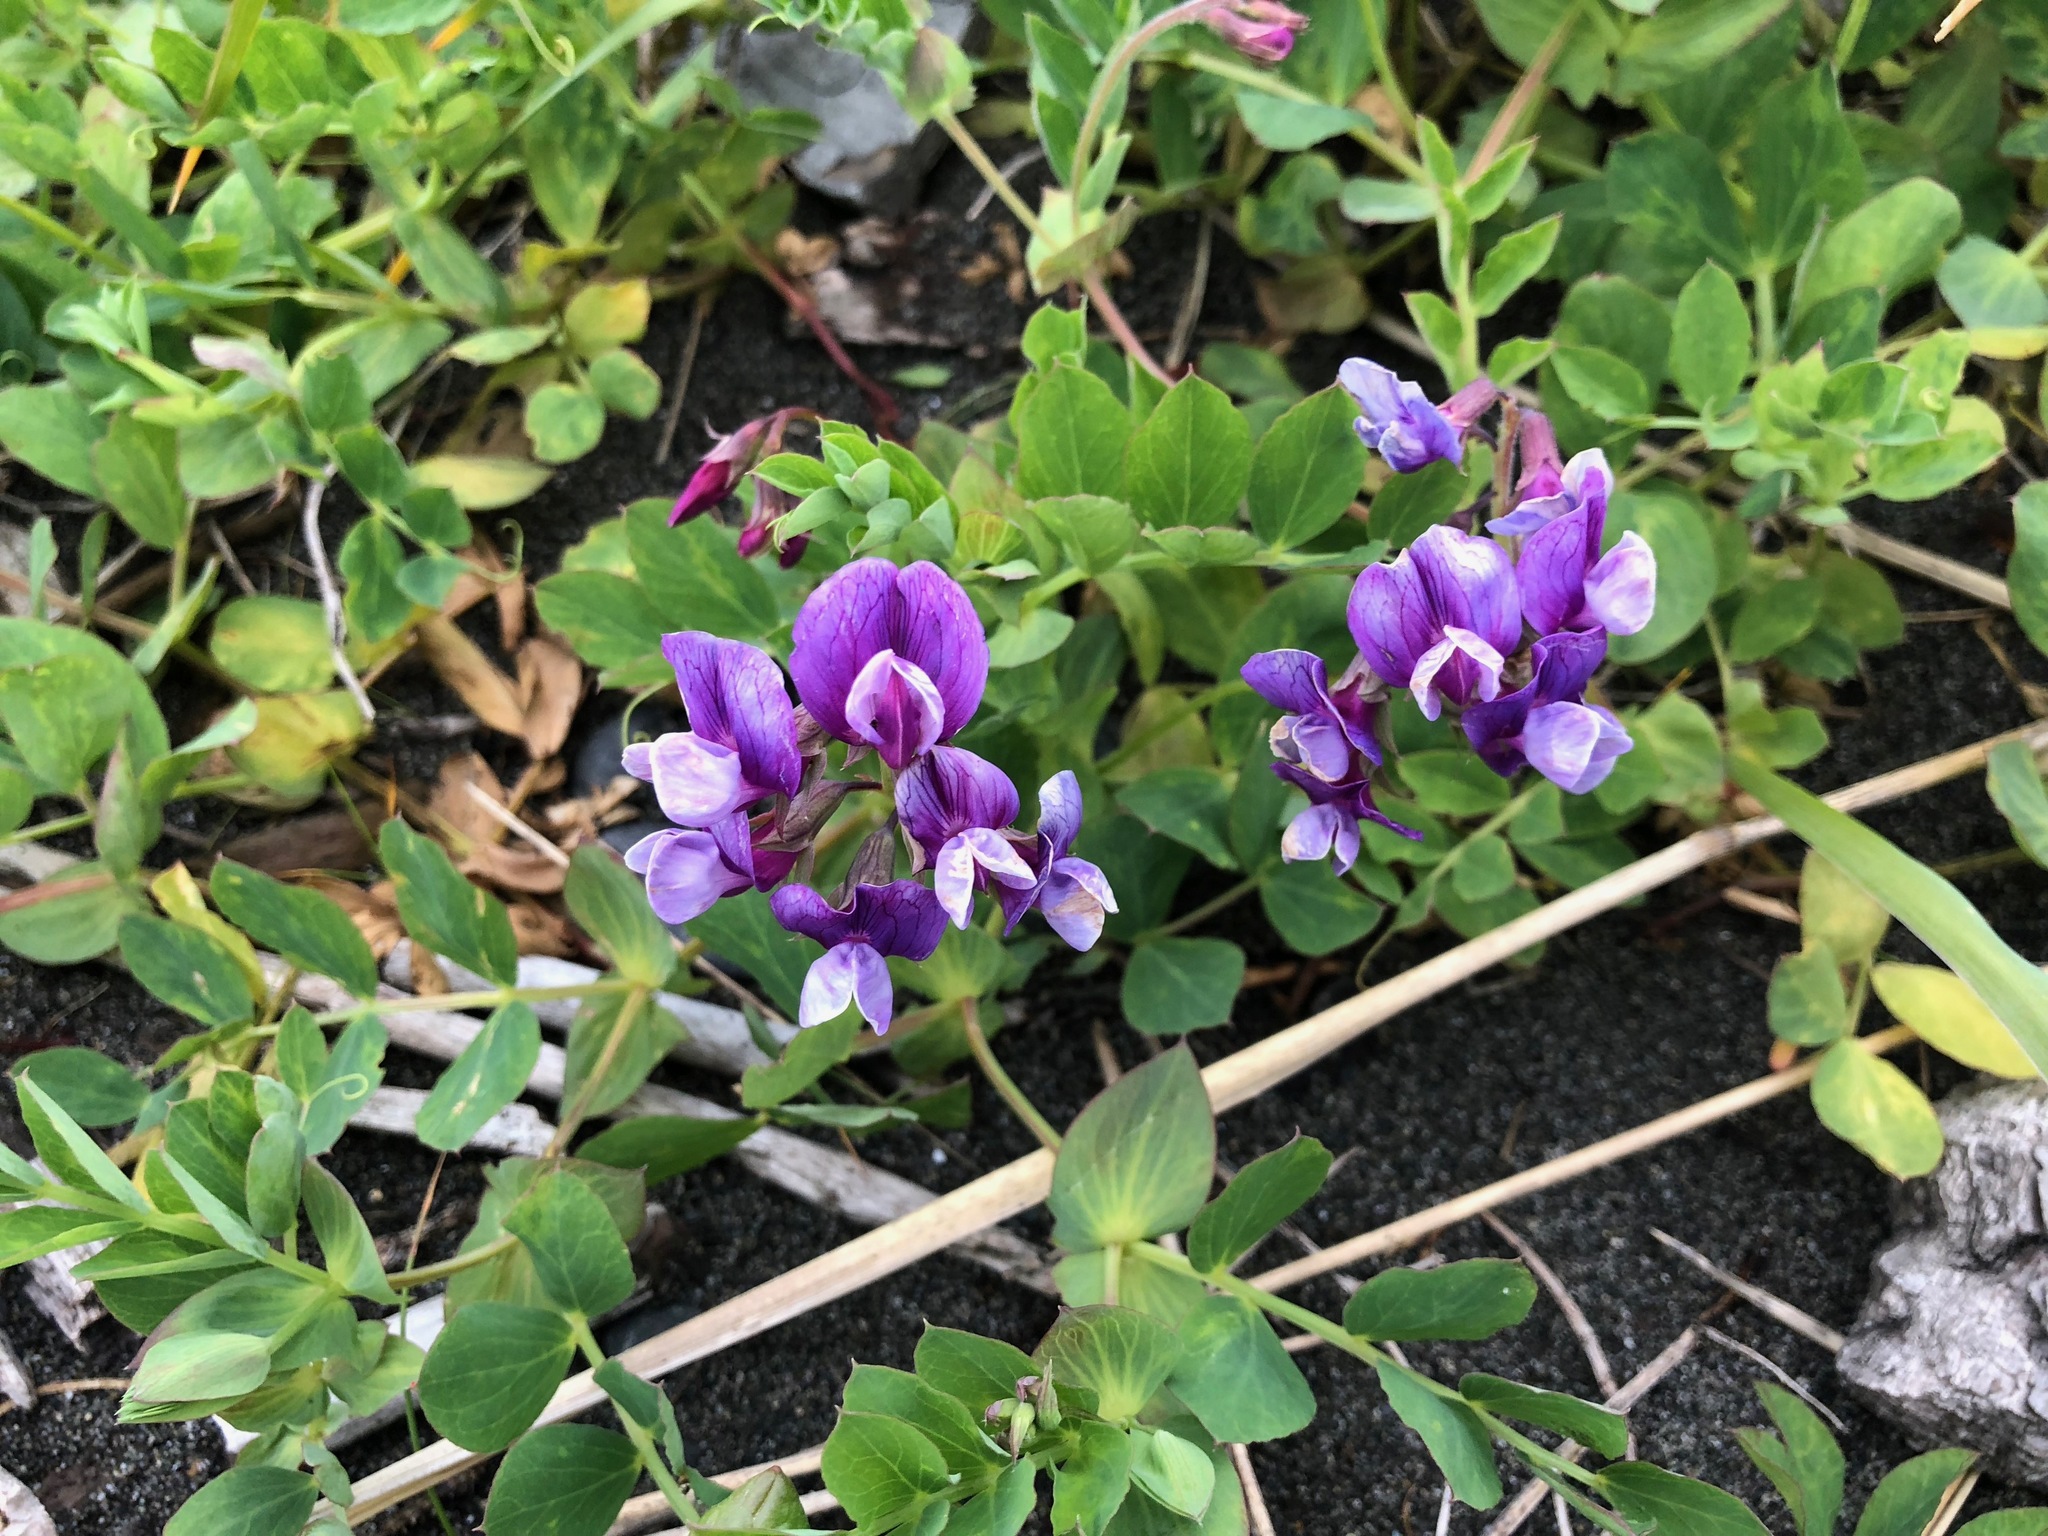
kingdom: Plantae
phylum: Tracheophyta
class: Magnoliopsida
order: Fabales
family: Fabaceae
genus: Lathyrus
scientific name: Lathyrus japonicus
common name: Sea pea
